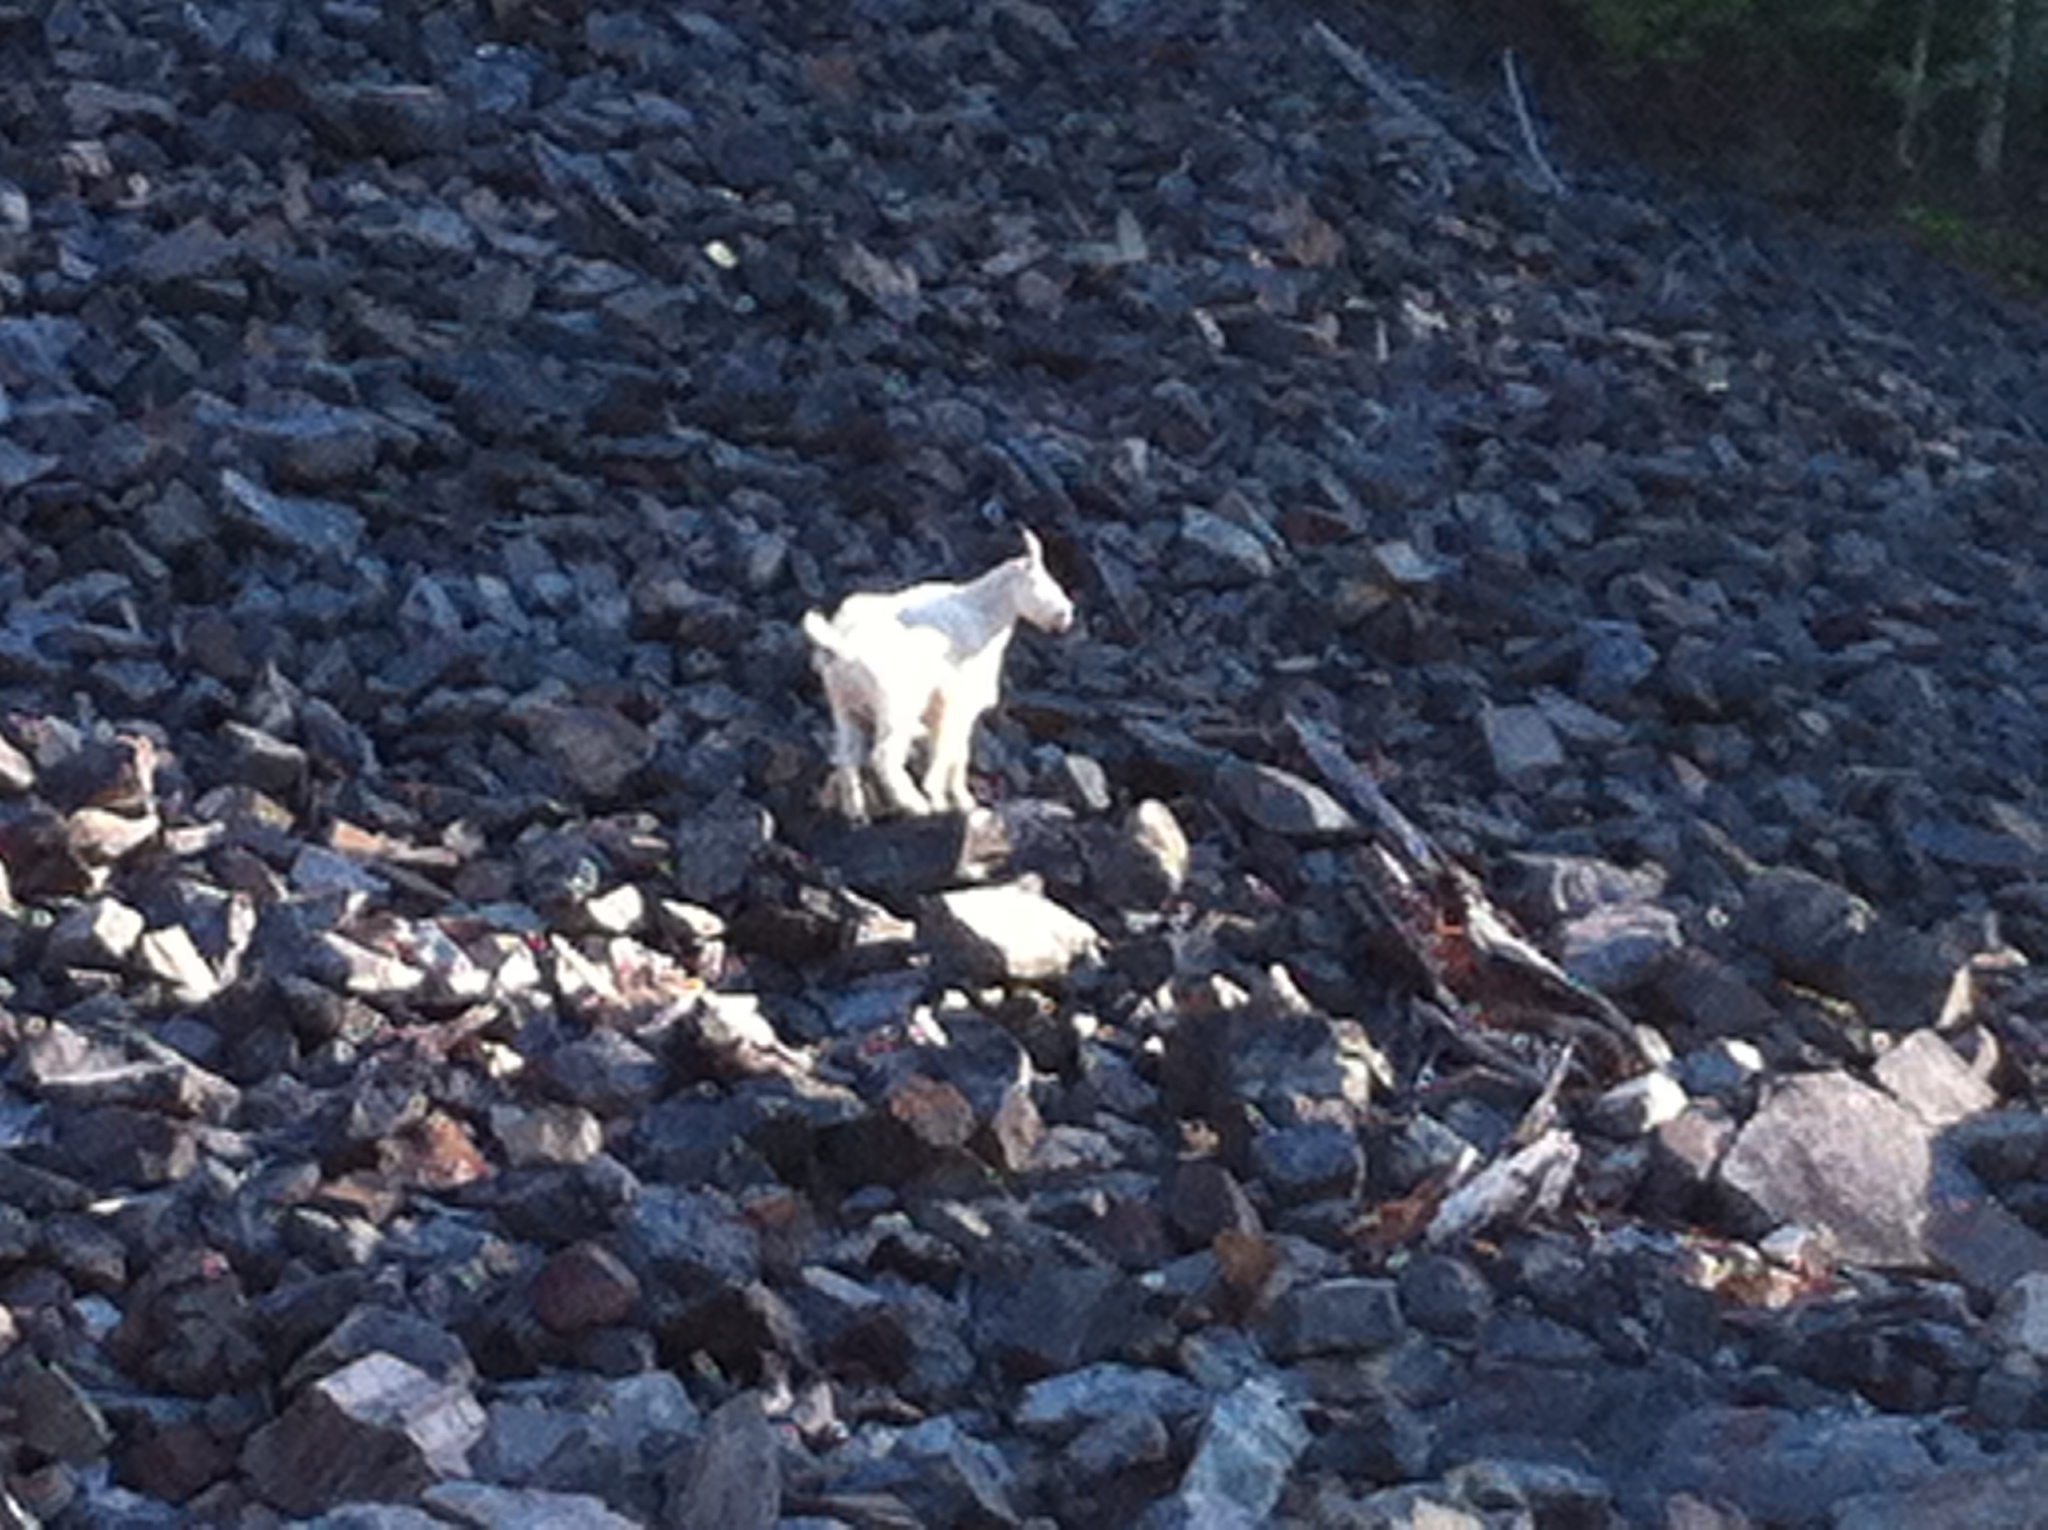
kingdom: Animalia
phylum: Chordata
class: Mammalia
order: Artiodactyla
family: Bovidae
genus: Oreamnos
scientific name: Oreamnos americanus
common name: Mountain goat
